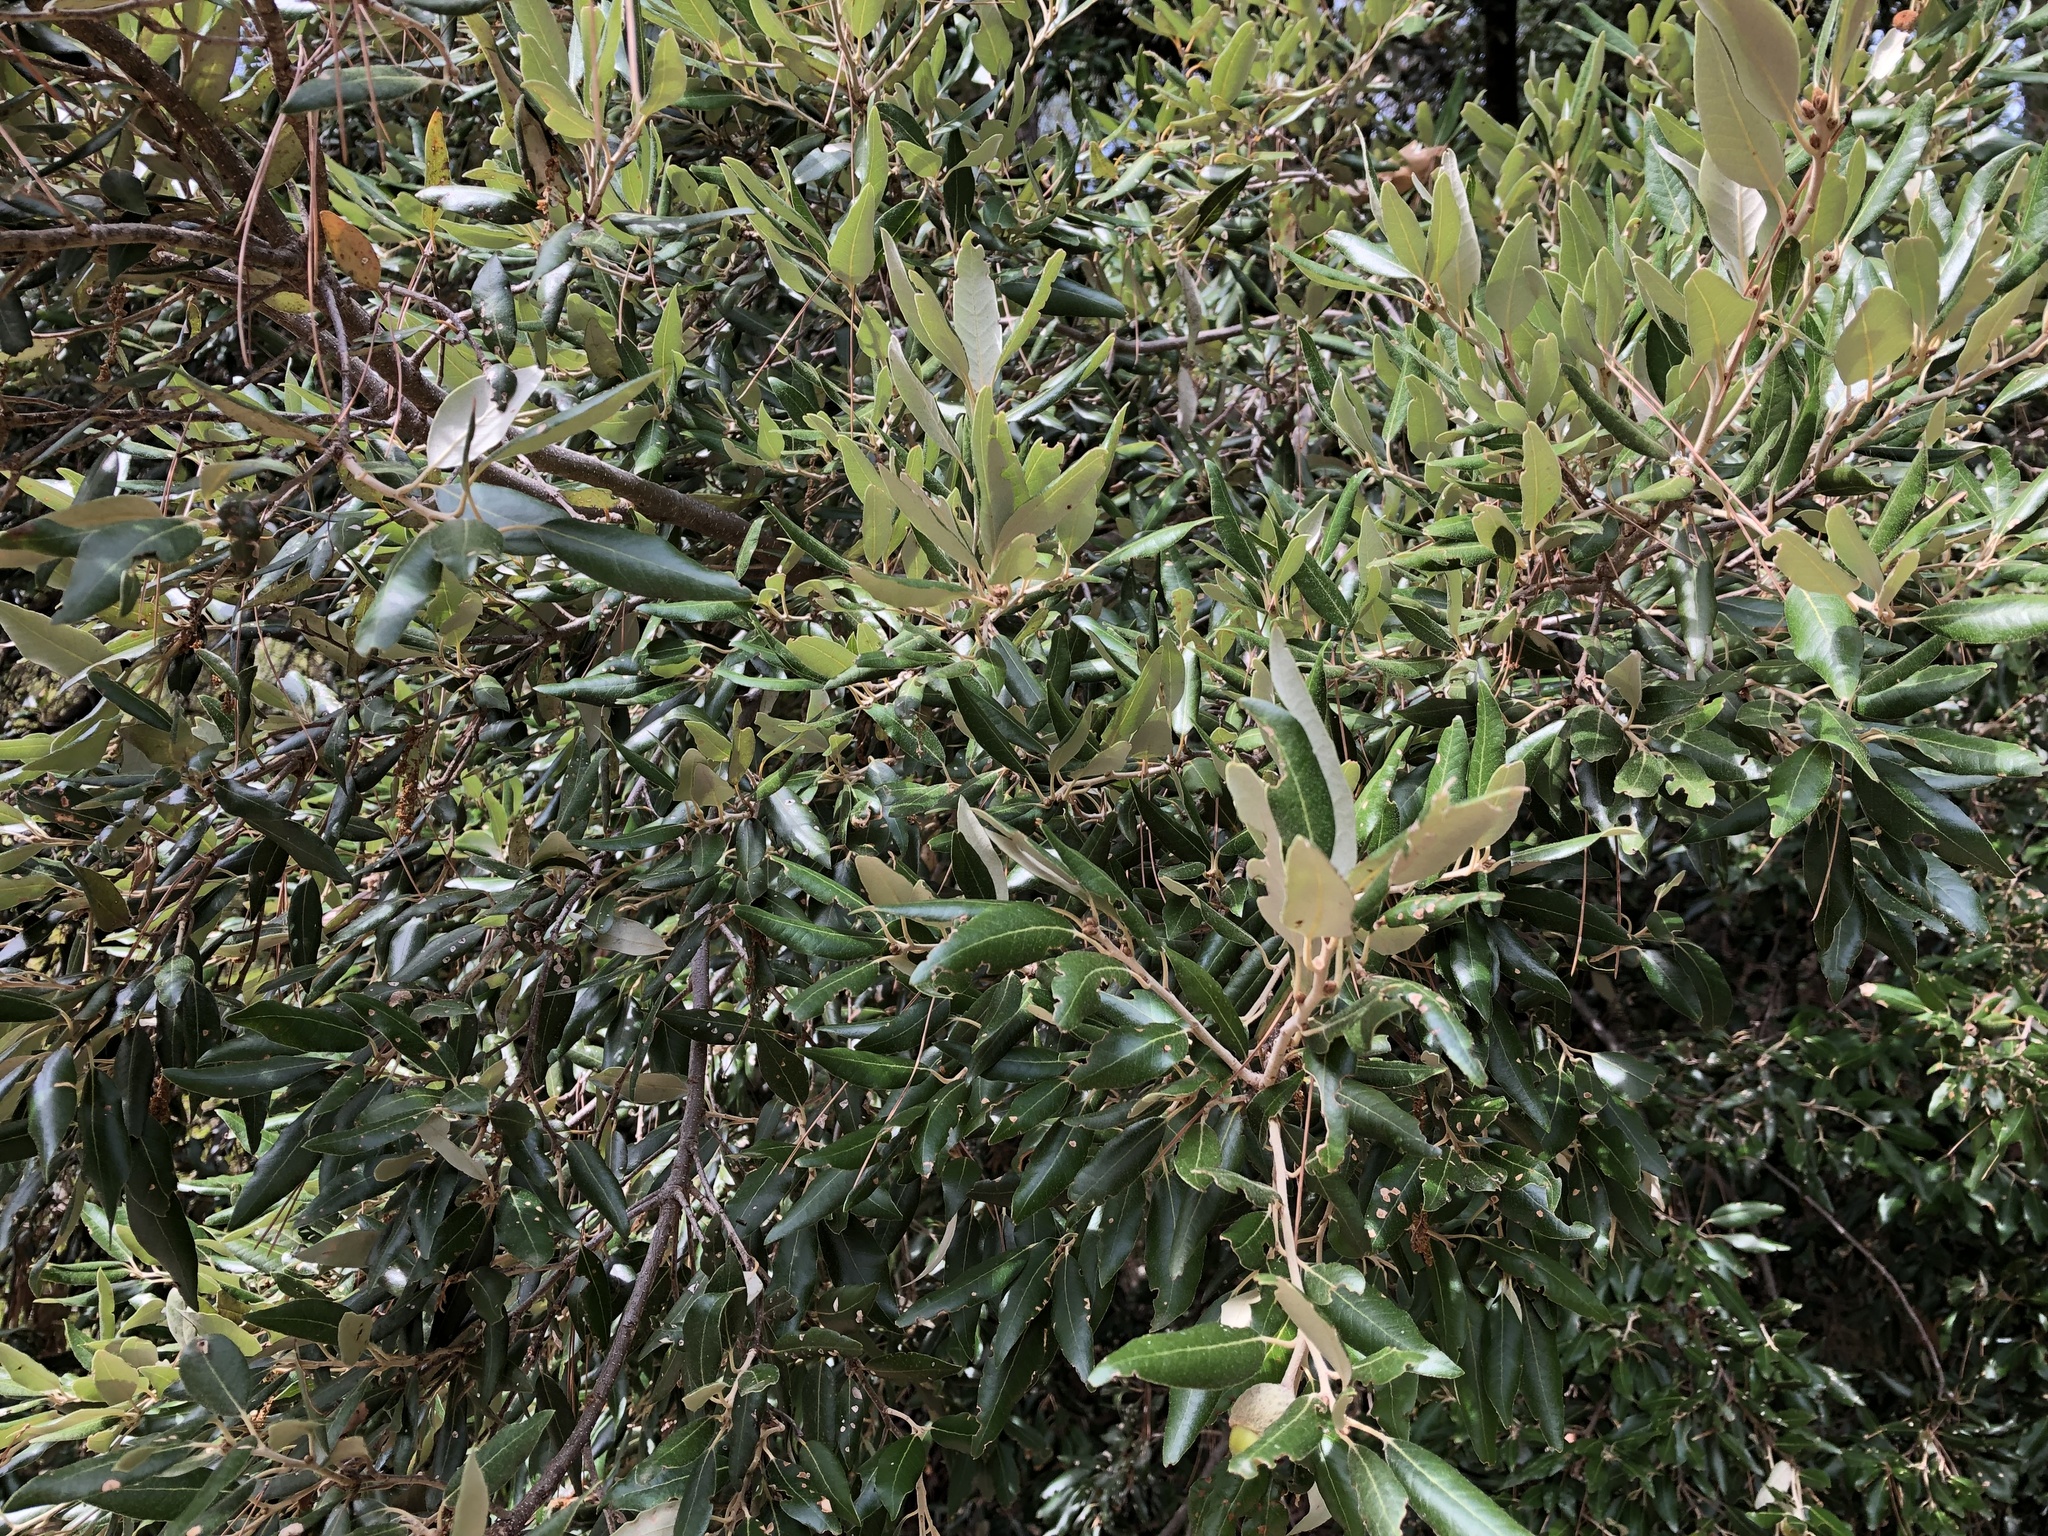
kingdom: Plantae
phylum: Tracheophyta
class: Magnoliopsida
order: Fagales
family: Fagaceae
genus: Quercus
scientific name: Quercus ilex
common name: Evergreen oak
